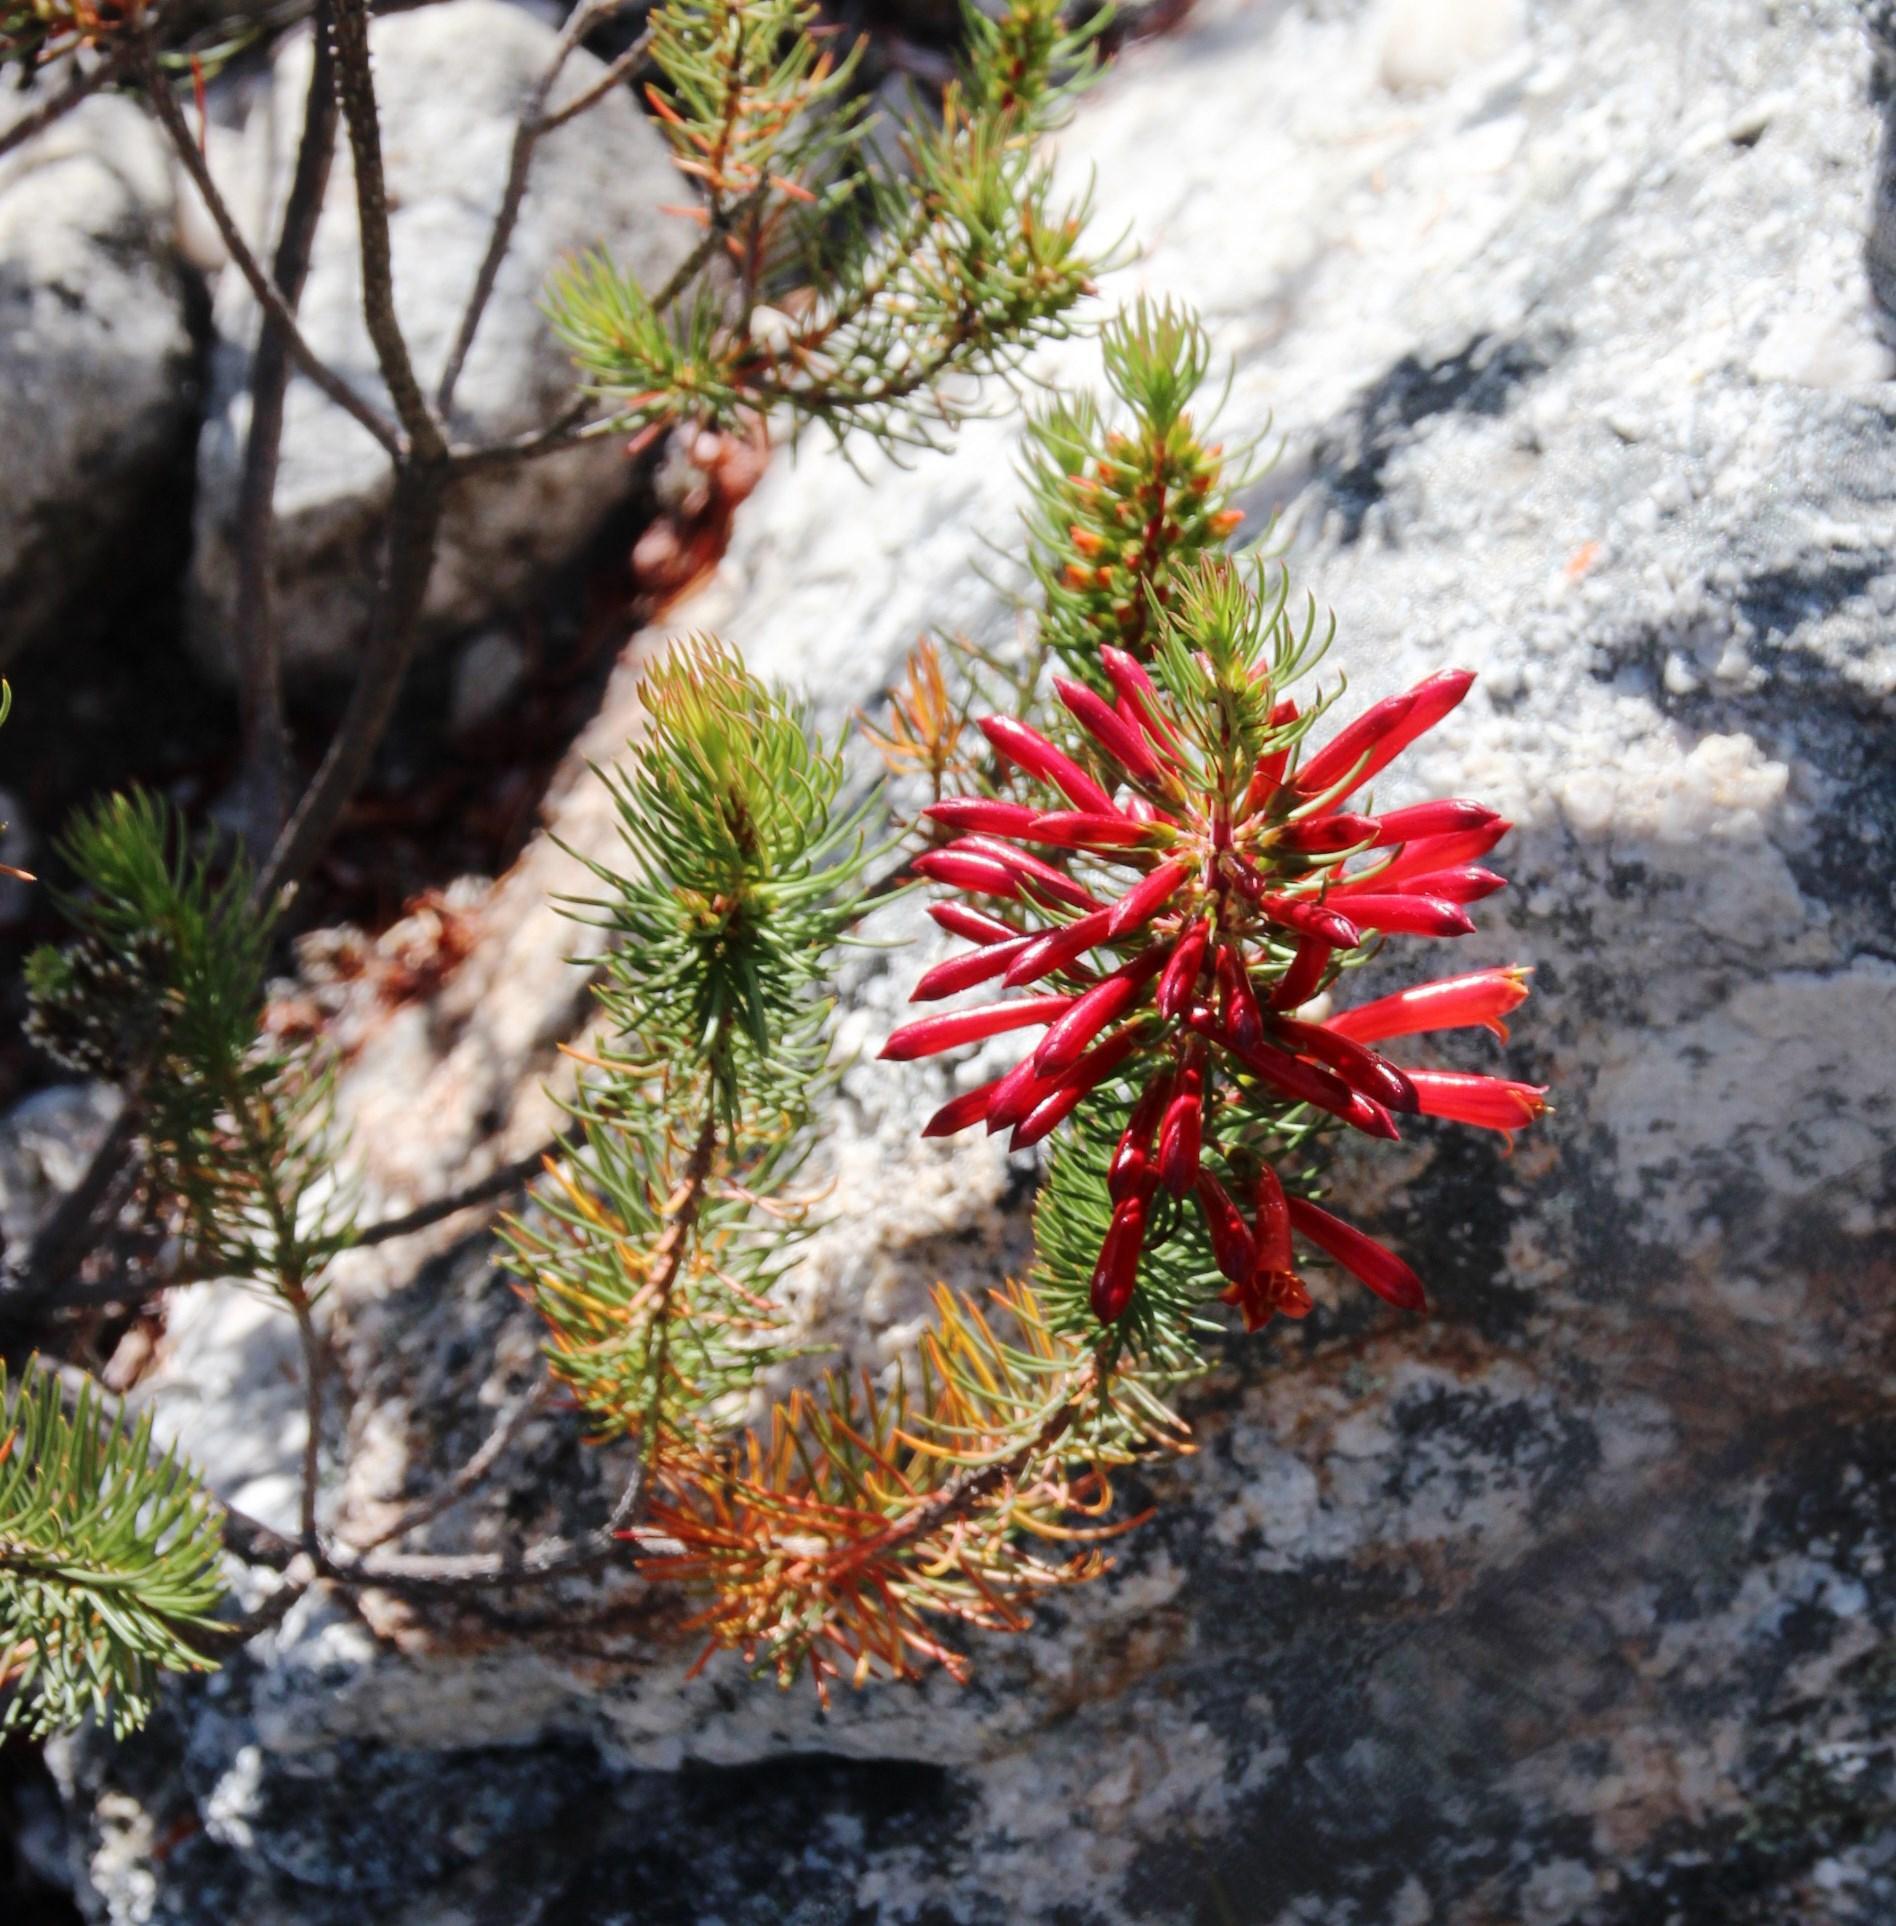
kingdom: Plantae
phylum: Tracheophyta
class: Magnoliopsida
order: Ericales
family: Ericaceae
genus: Erica
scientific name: Erica grandiflora
